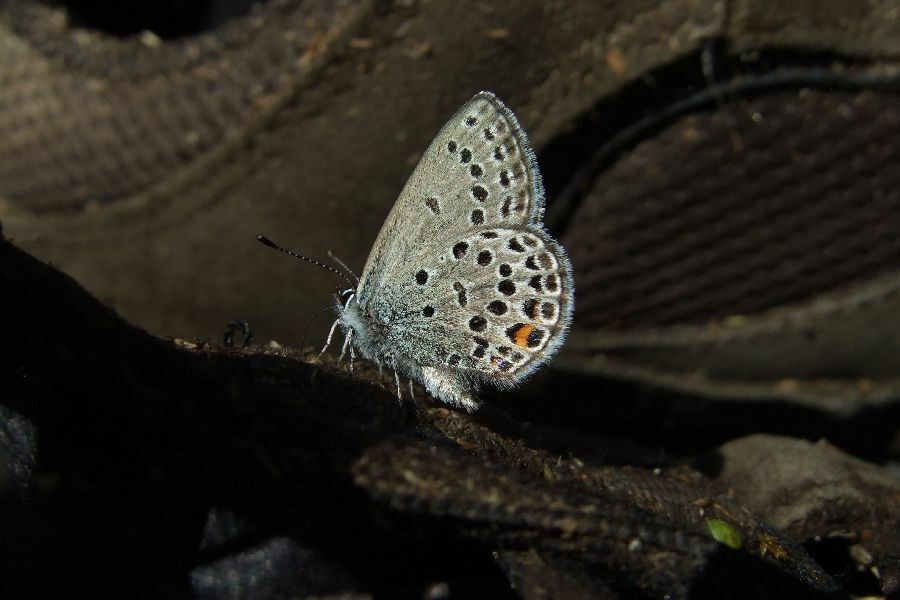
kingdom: Animalia
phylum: Arthropoda
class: Insecta
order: Lepidoptera
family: Lycaenidae
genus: Vacciniina
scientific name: Vacciniina optilete
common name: Cranberry blue
